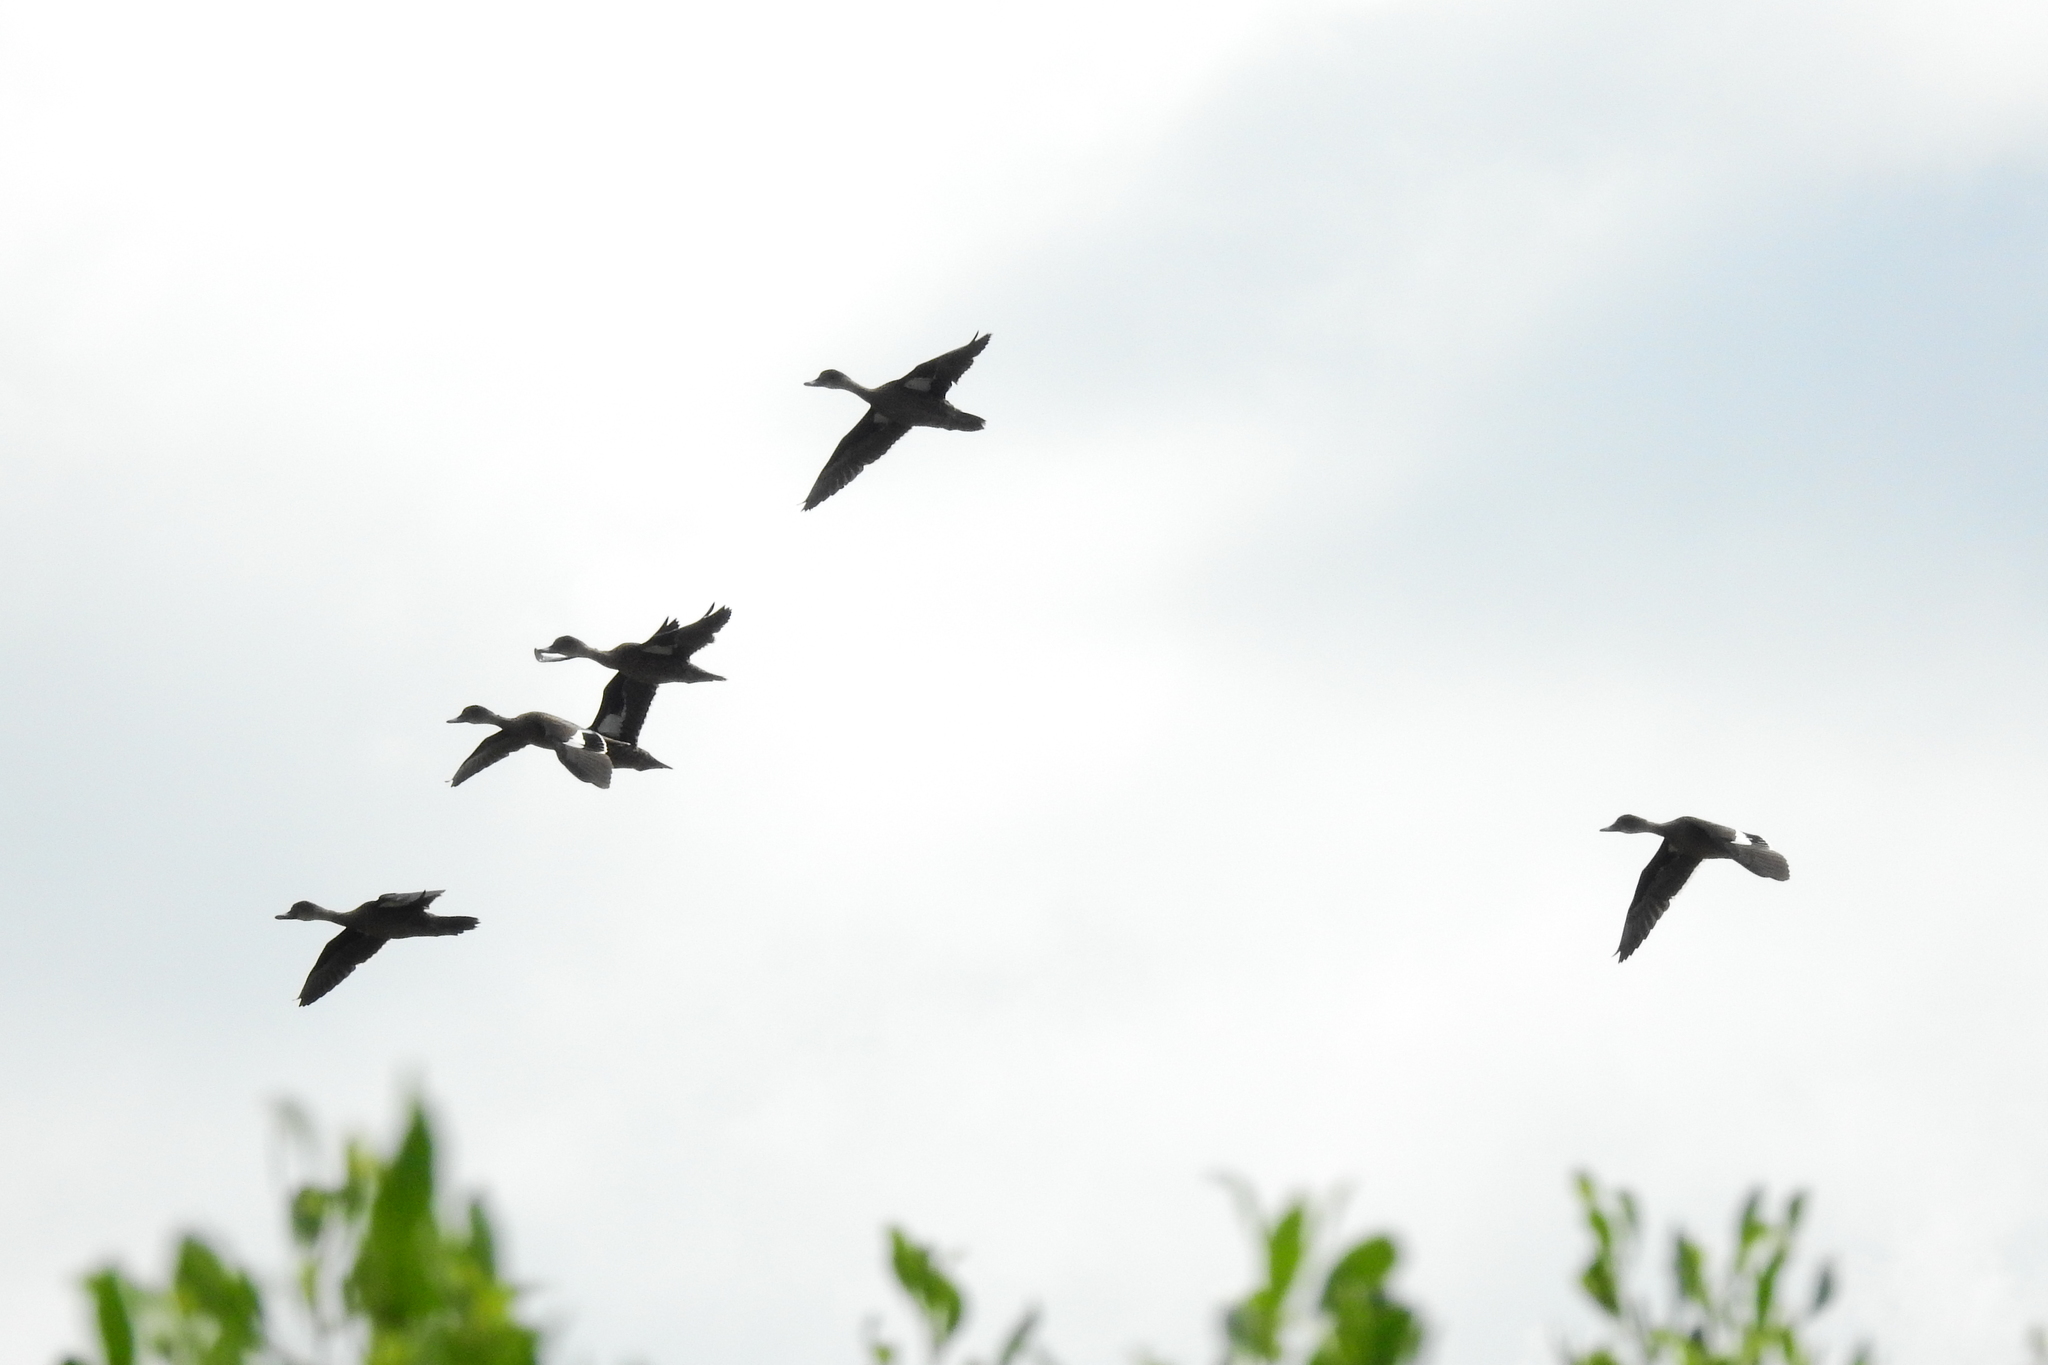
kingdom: Animalia
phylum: Chordata
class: Aves
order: Anseriformes
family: Anatidae
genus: Anas
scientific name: Anas gibberifrons
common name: Sunda teal
